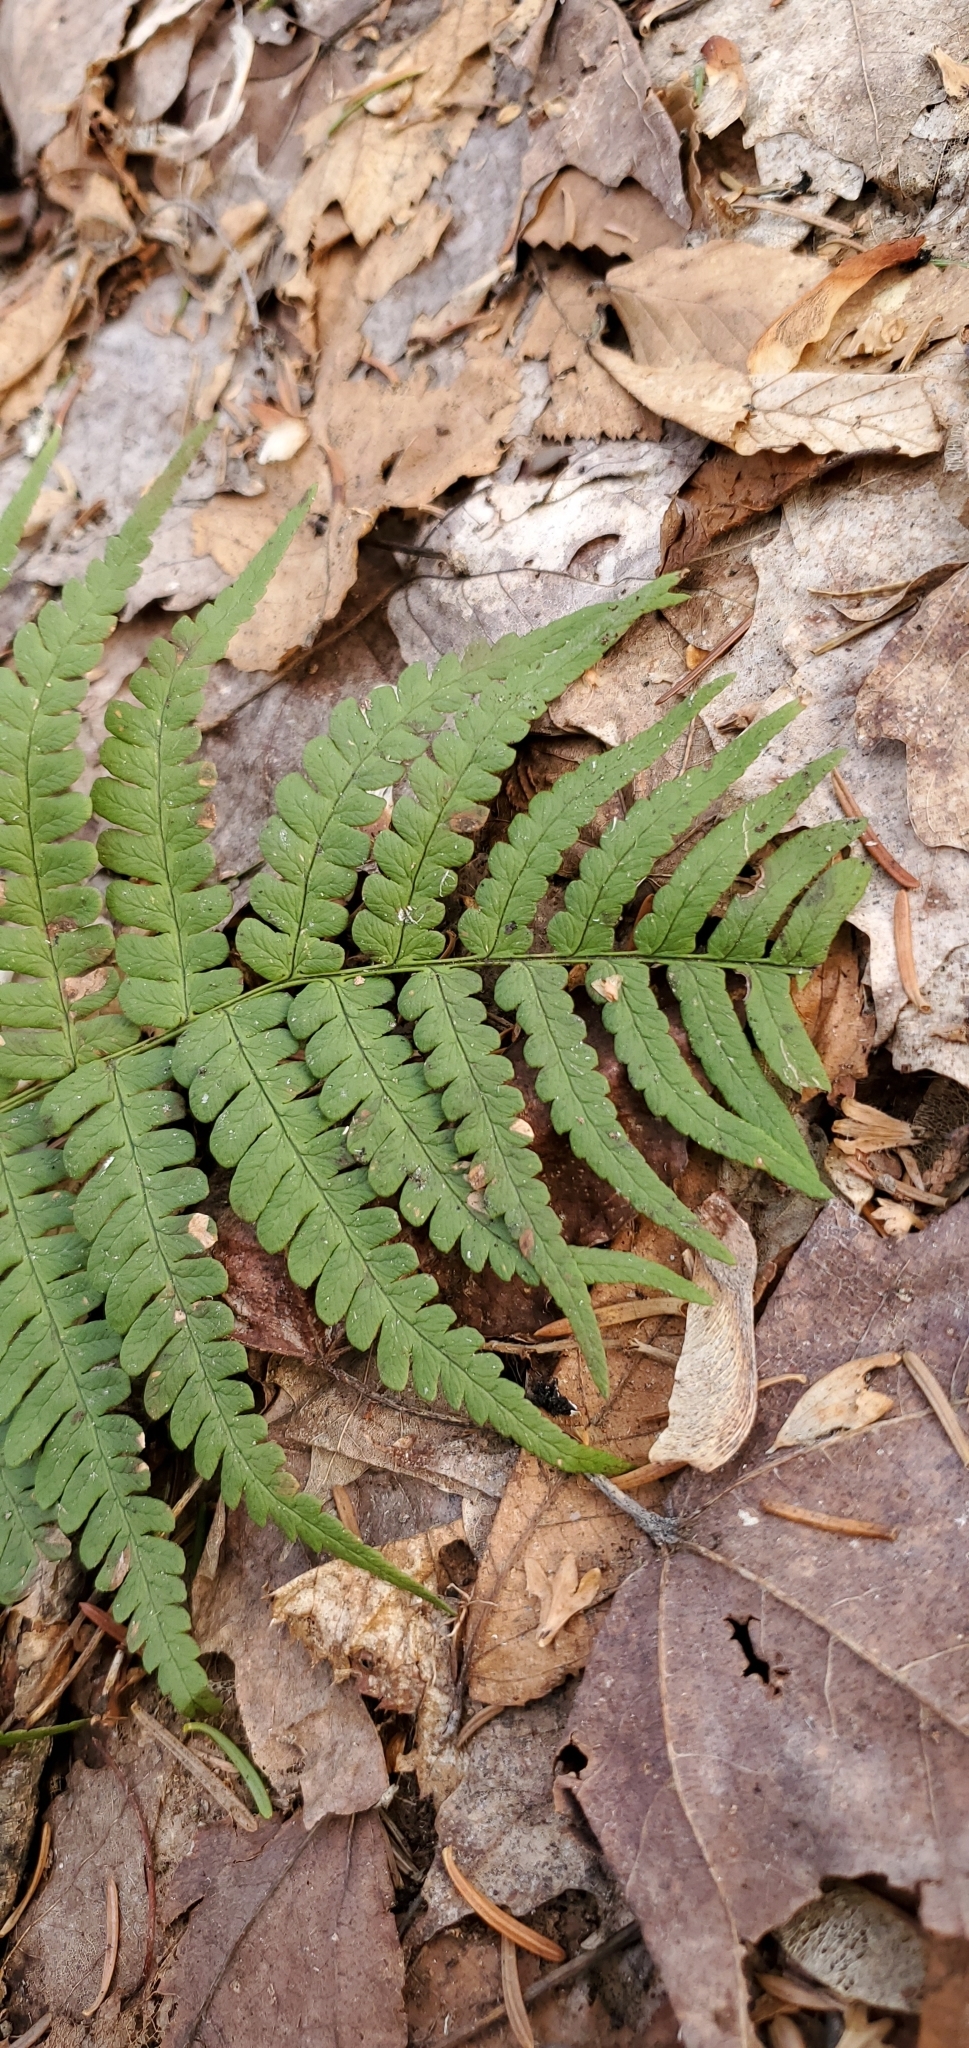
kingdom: Plantae
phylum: Tracheophyta
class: Polypodiopsida
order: Polypodiales
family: Dryopteridaceae
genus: Dryopteris
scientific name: Dryopteris marginalis
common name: Marginal wood fern
